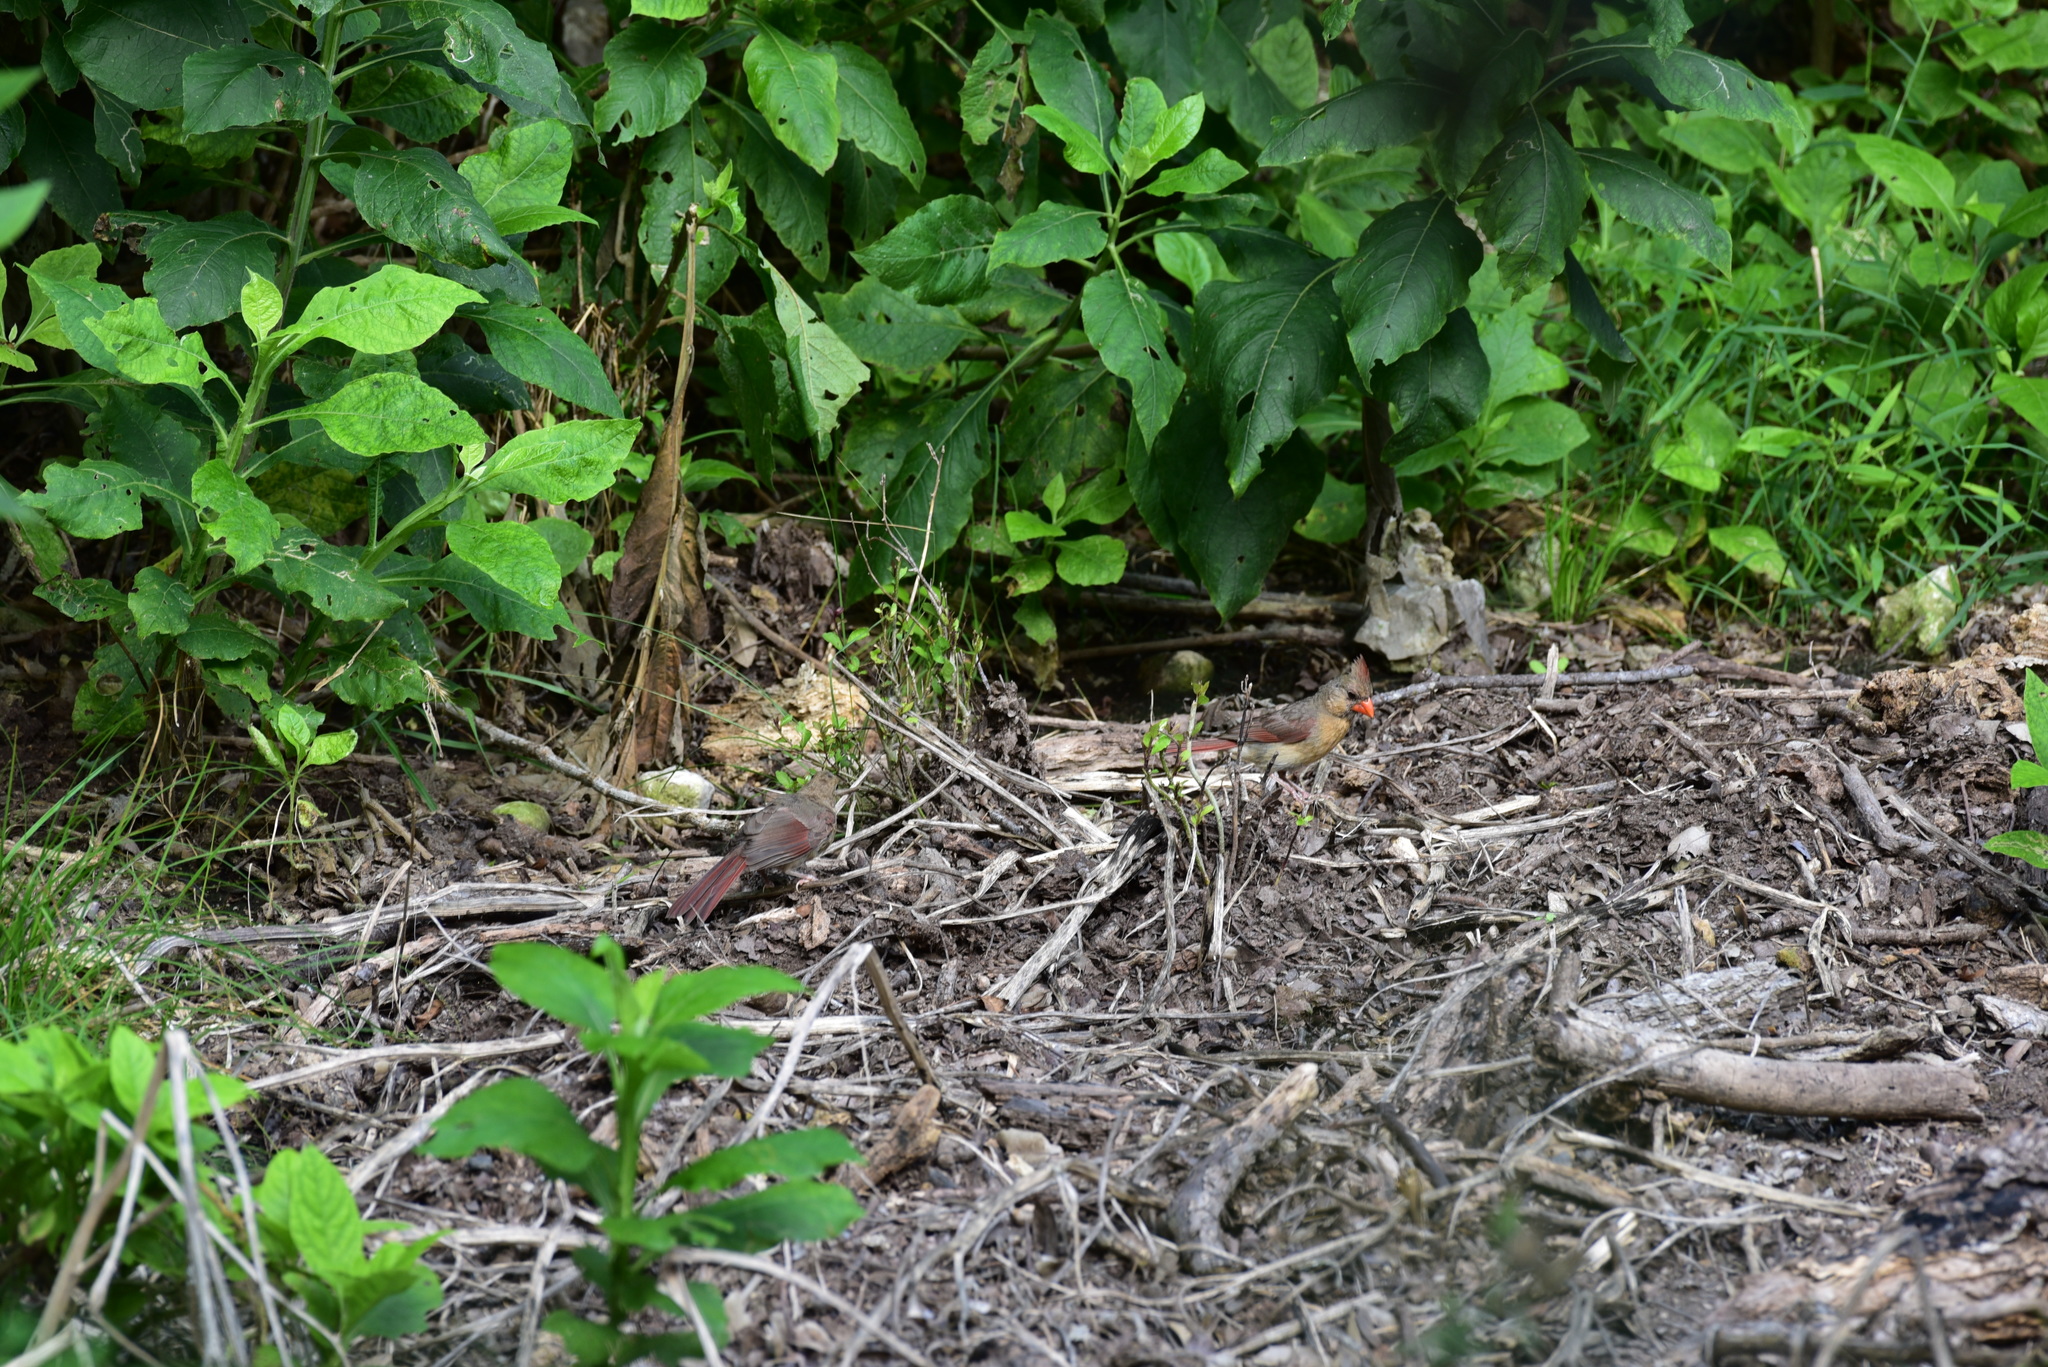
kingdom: Animalia
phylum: Chordata
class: Aves
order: Passeriformes
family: Cardinalidae
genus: Cardinalis
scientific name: Cardinalis cardinalis
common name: Northern cardinal
